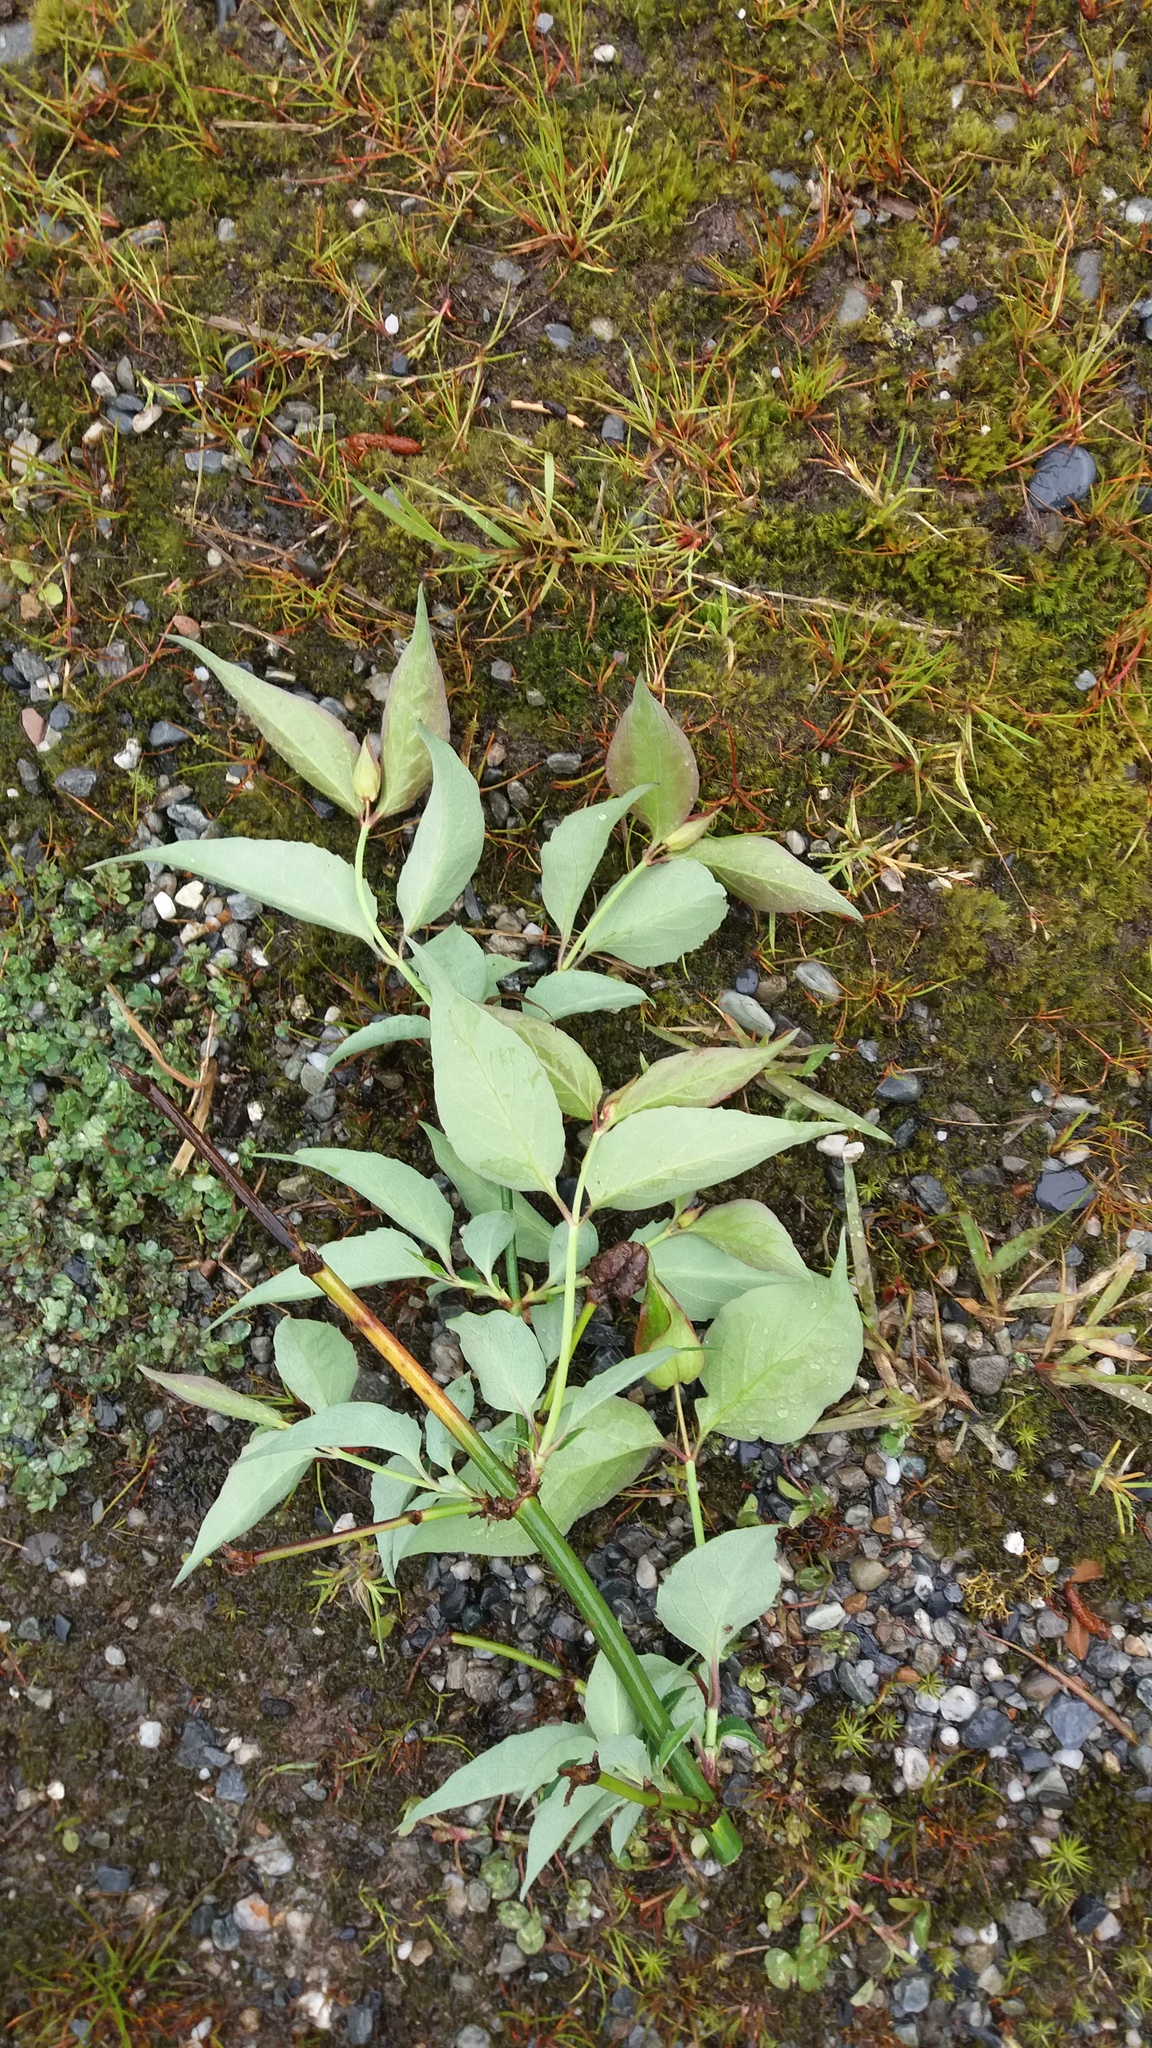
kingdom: Plantae
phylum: Tracheophyta
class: Magnoliopsida
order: Dipsacales
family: Caprifoliaceae
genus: Leycesteria
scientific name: Leycesteria formosa
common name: Himalayan honeysuckle
